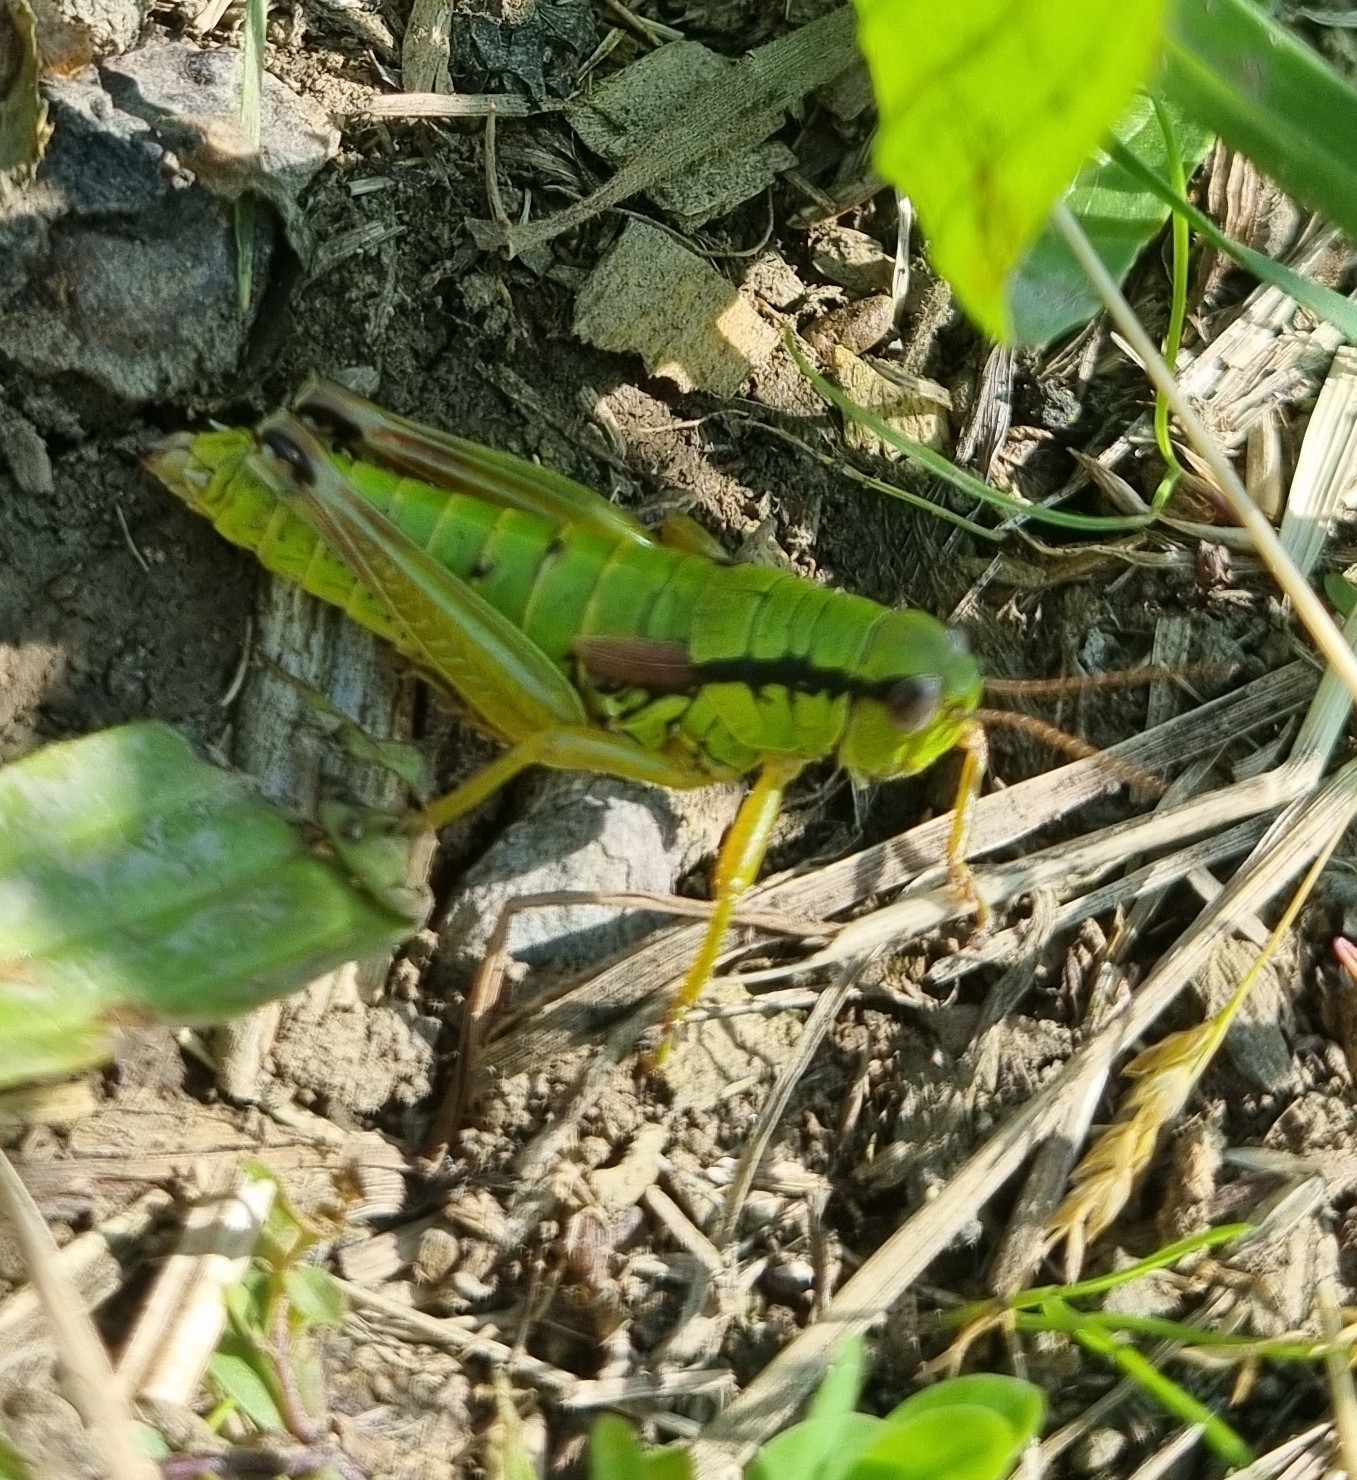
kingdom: Animalia
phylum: Arthropoda
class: Insecta
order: Orthoptera
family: Acrididae
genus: Miramella
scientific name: Miramella alpina
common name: Green mountain grasshopper
